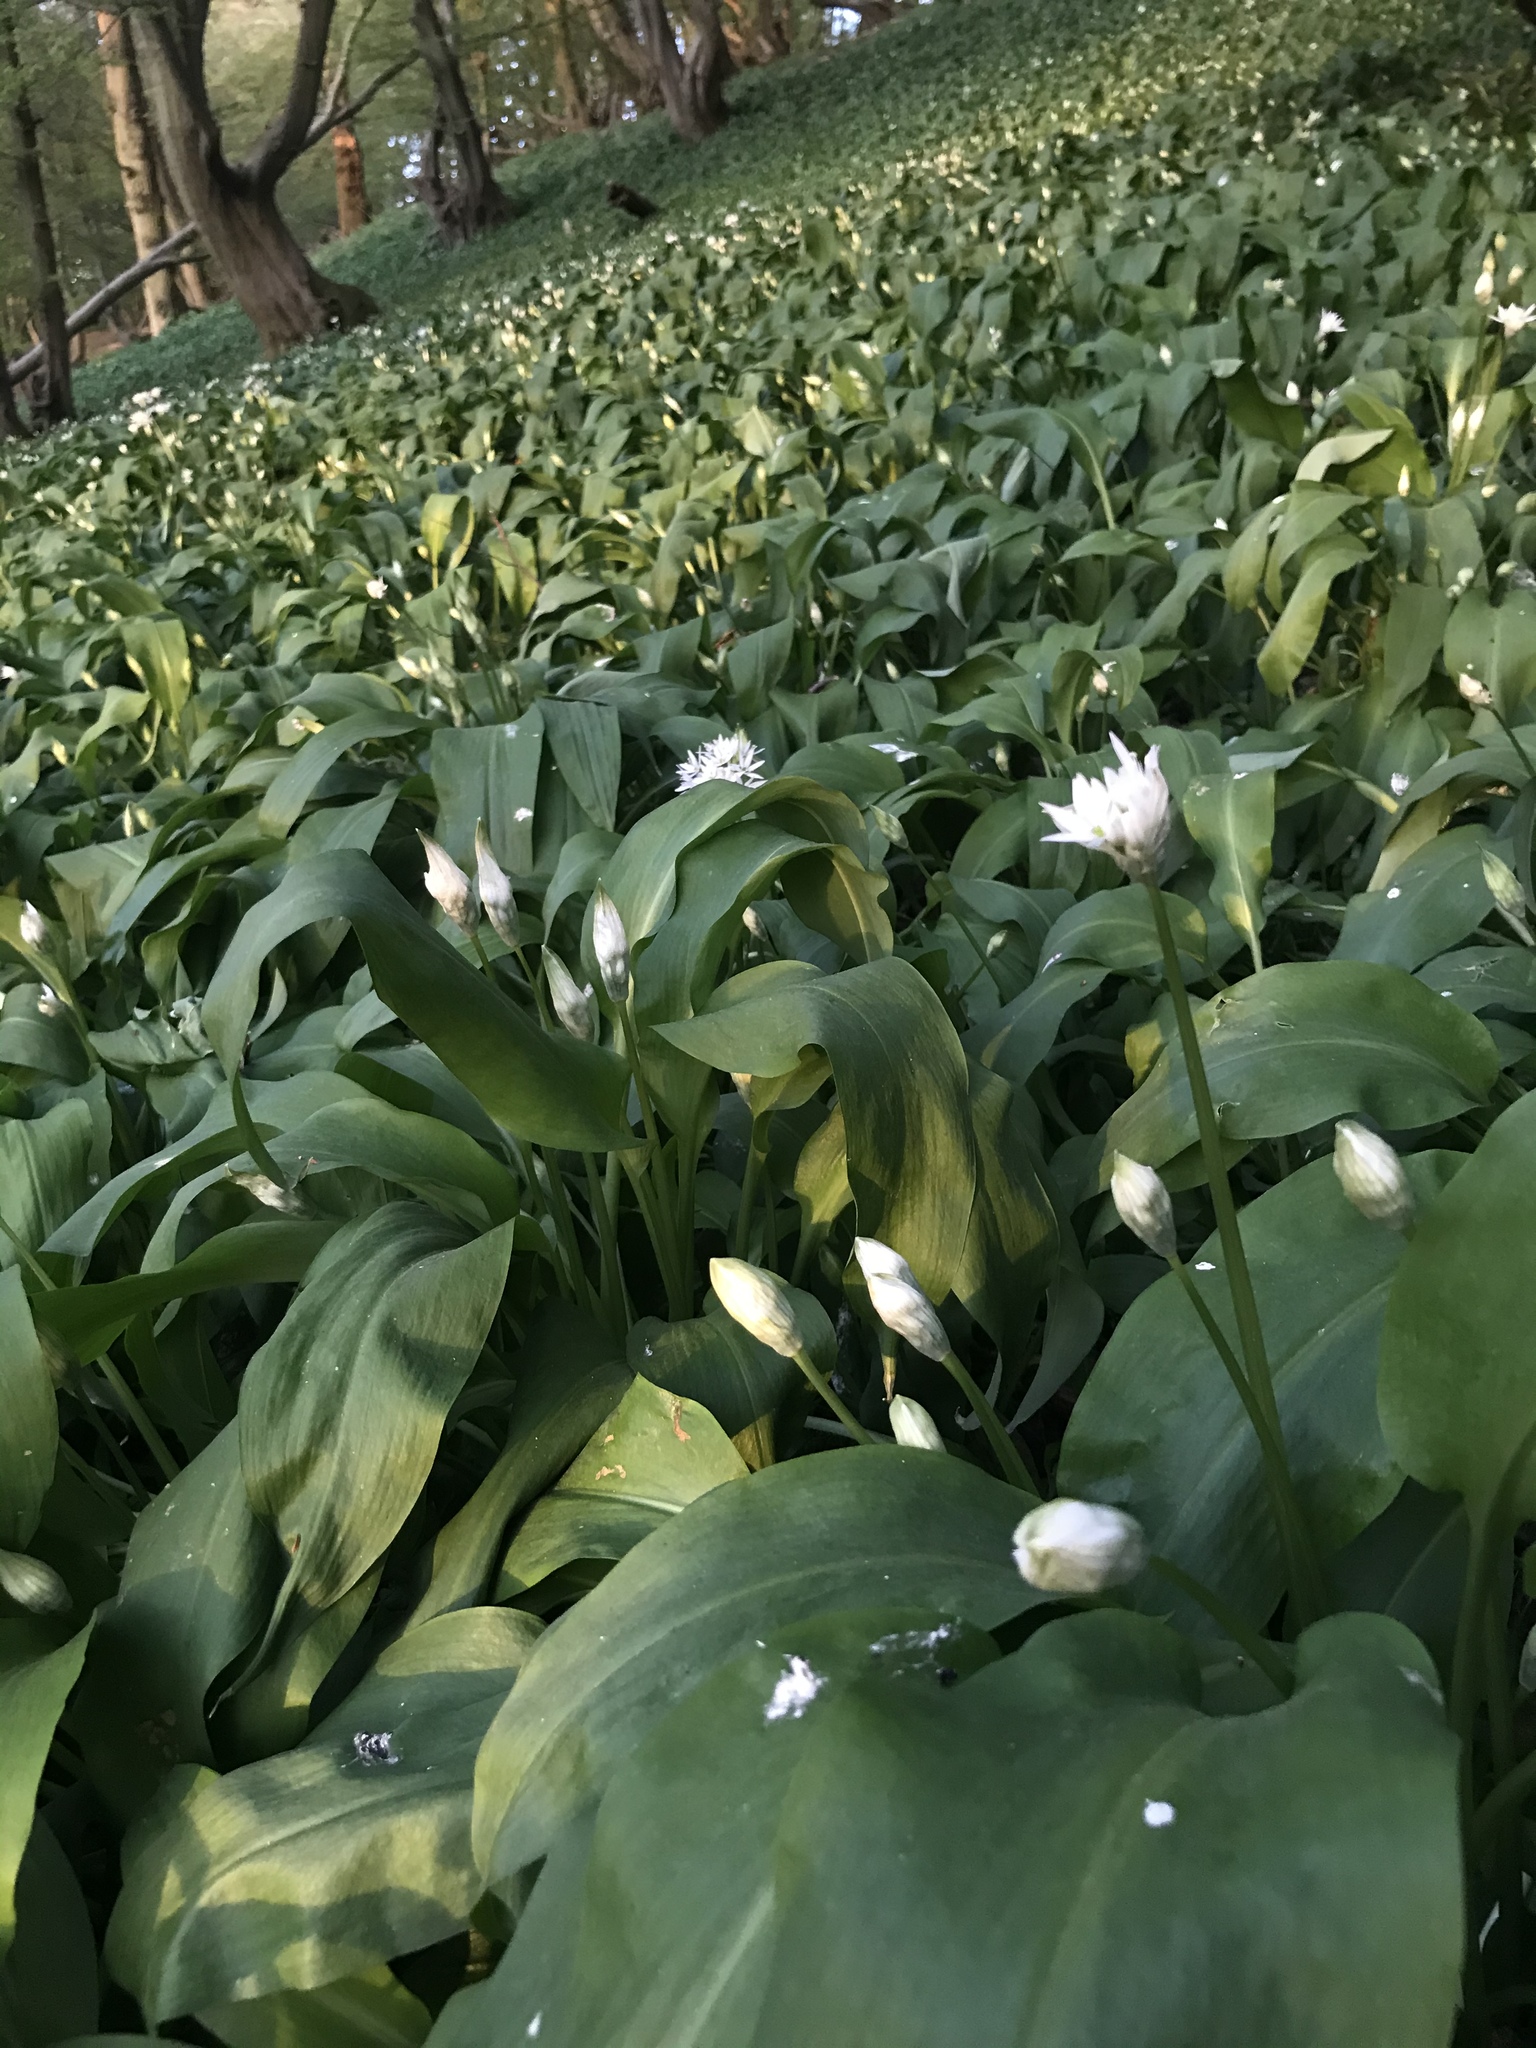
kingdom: Plantae
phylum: Tracheophyta
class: Liliopsida
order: Asparagales
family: Amaryllidaceae
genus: Allium
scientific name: Allium ursinum
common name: Ramsons
